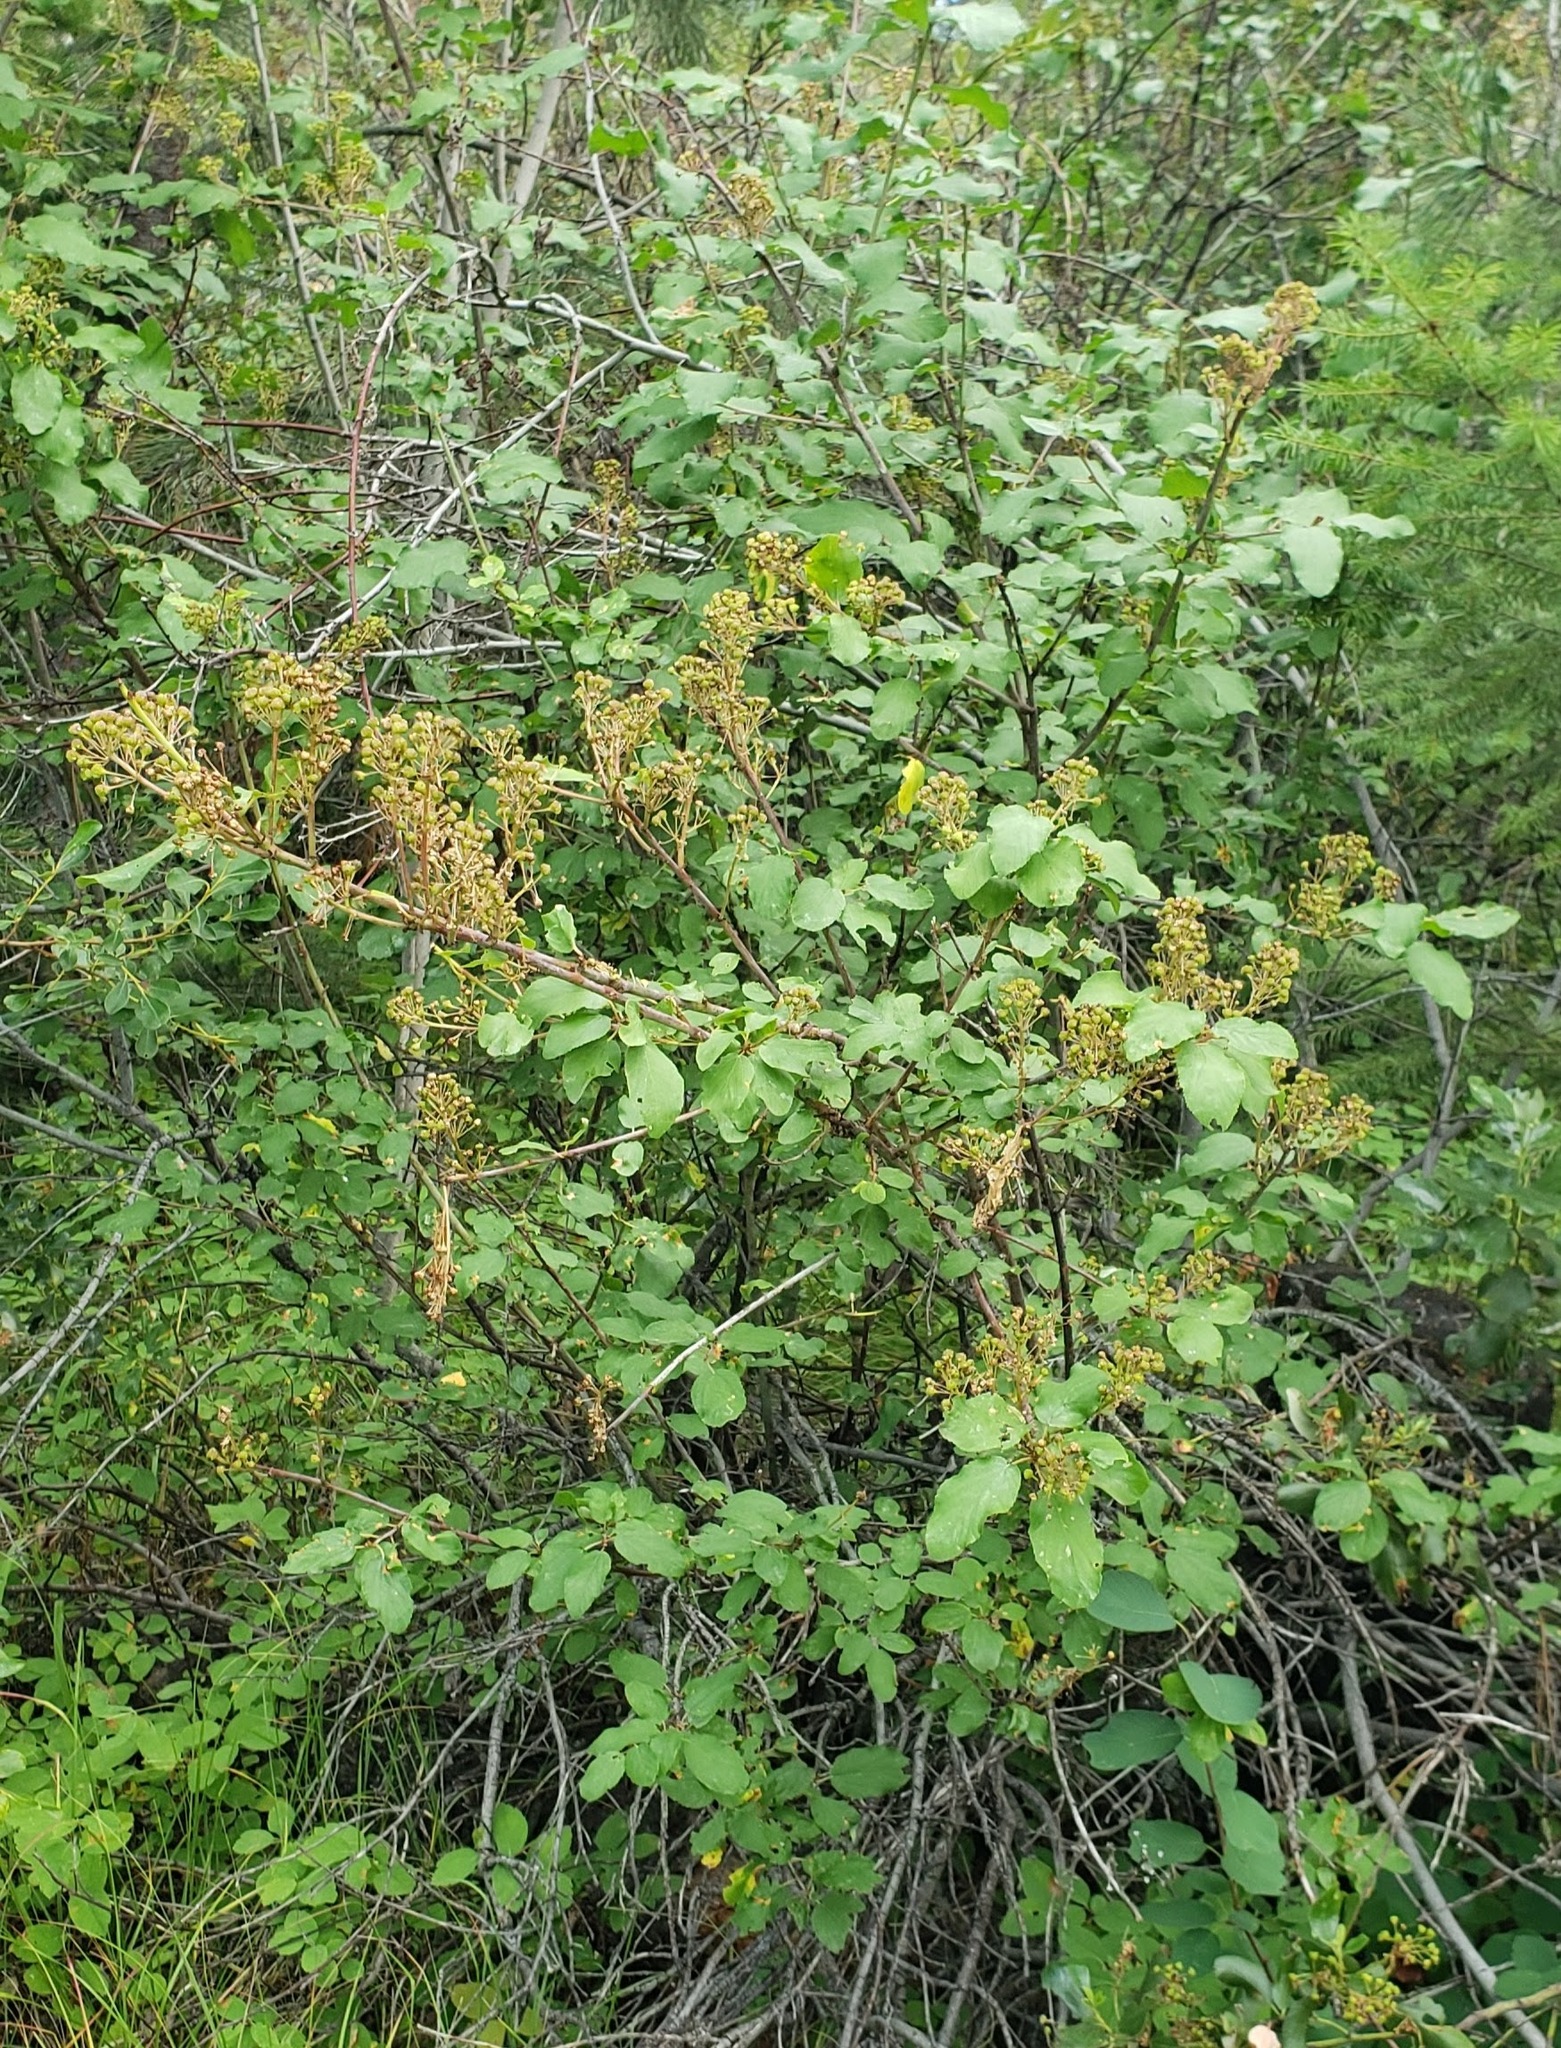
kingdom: Plantae
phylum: Tracheophyta
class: Magnoliopsida
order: Rosales
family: Rhamnaceae
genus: Ceanothus
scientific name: Ceanothus sanguineus
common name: Teatree
